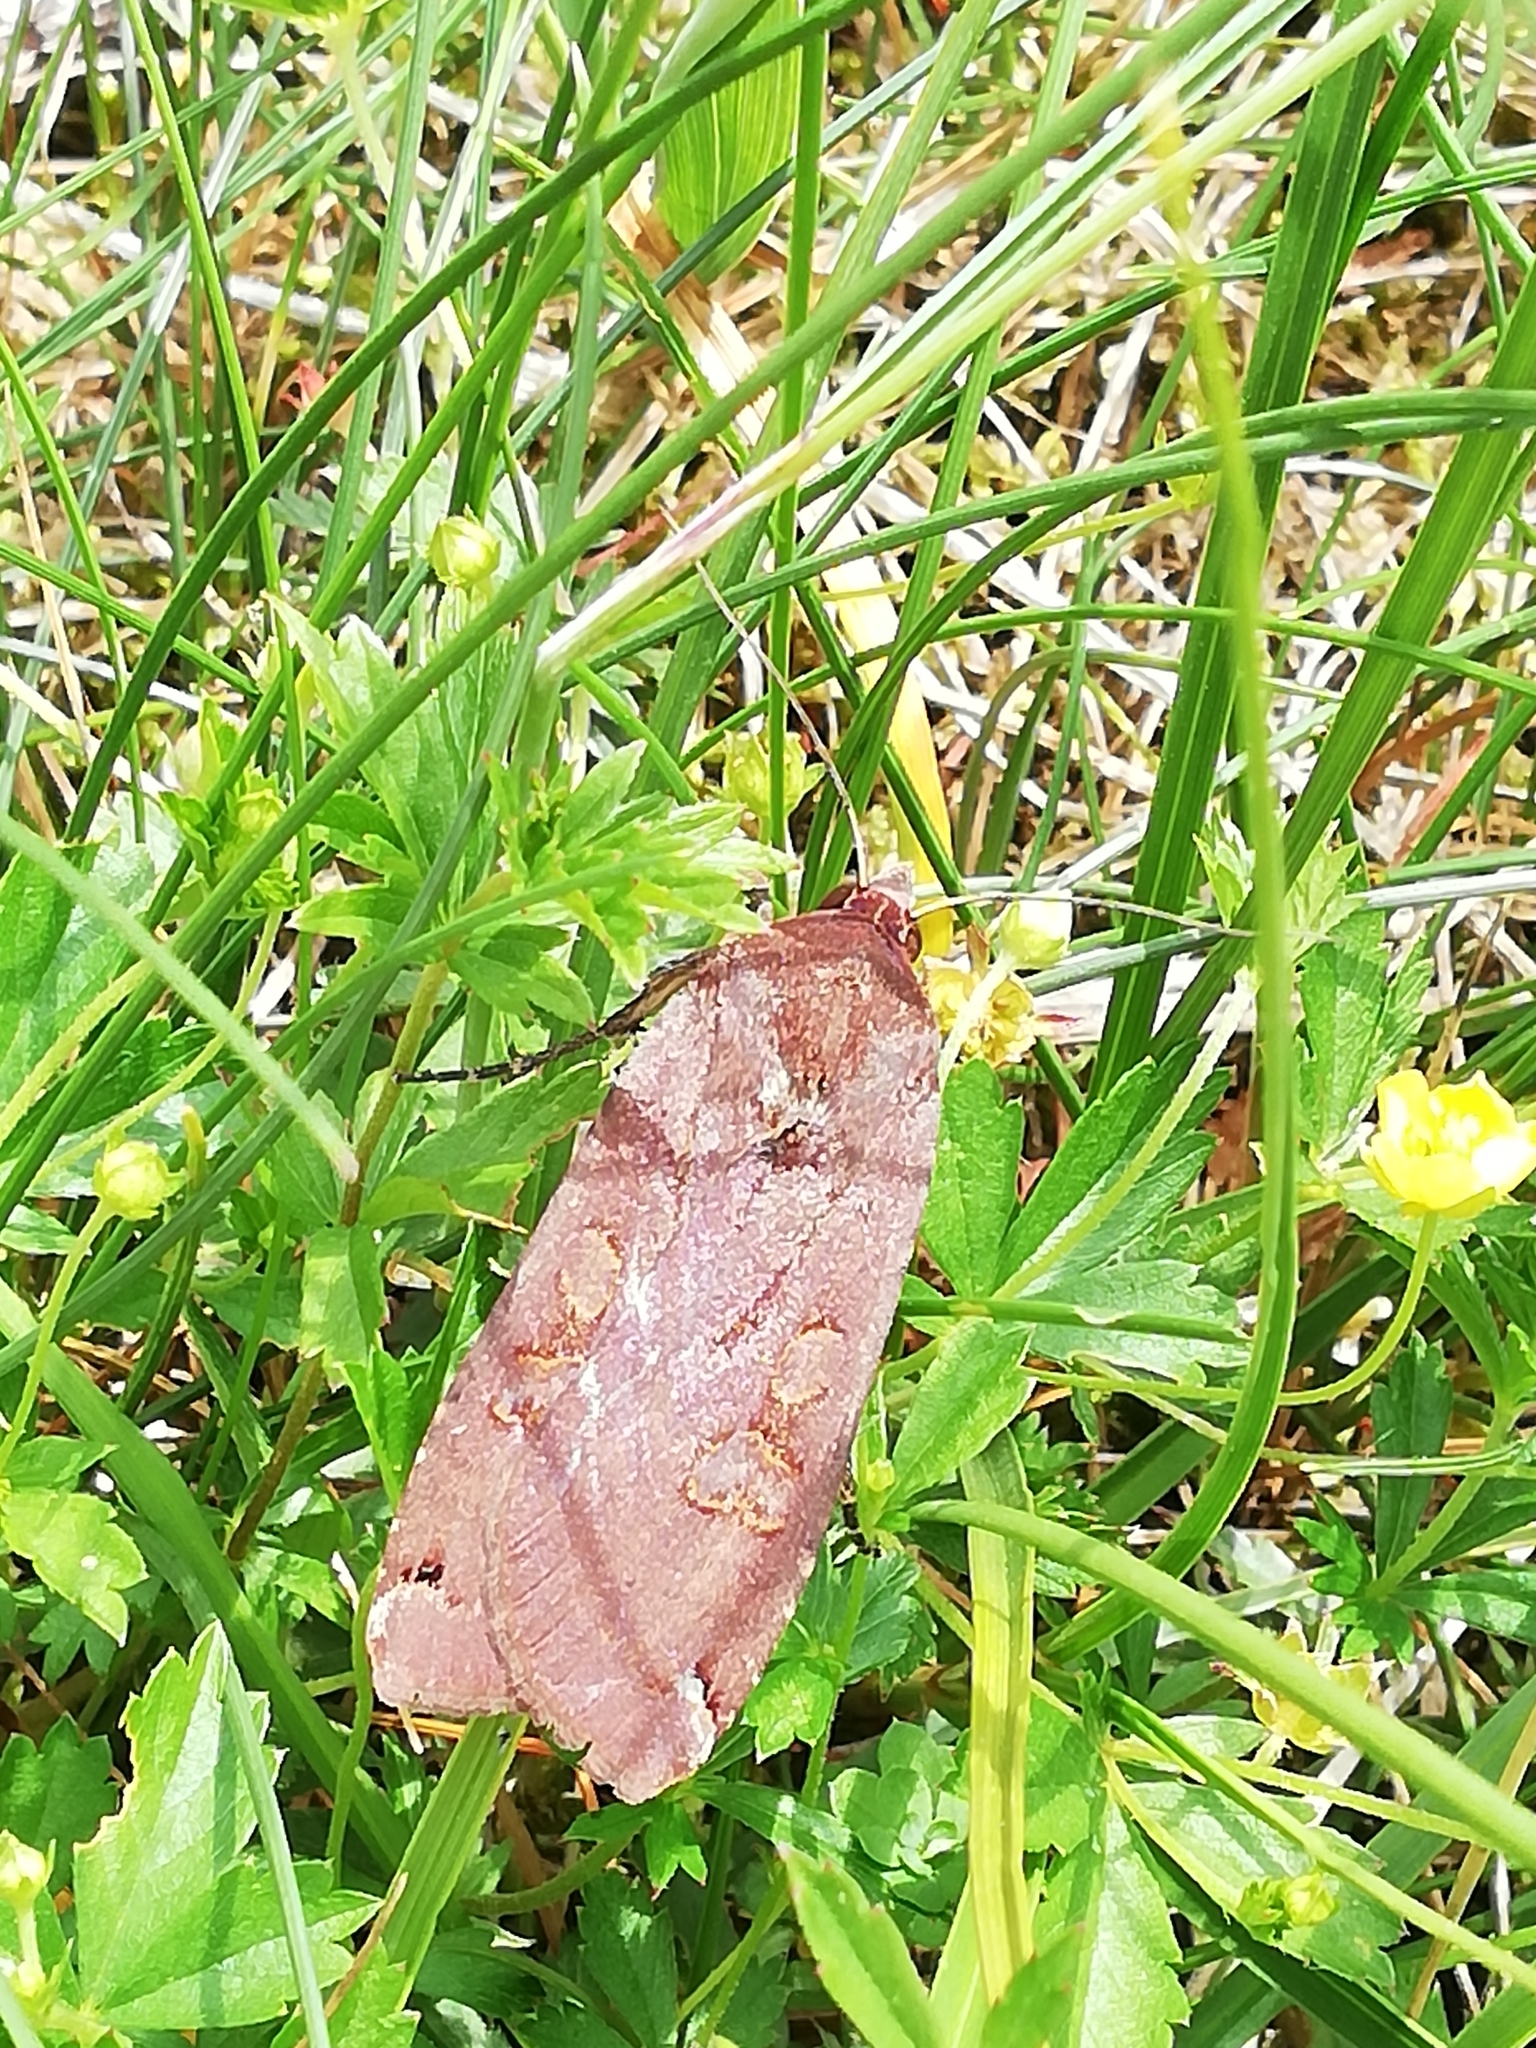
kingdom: Animalia
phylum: Arthropoda
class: Insecta
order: Lepidoptera
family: Noctuidae
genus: Noctua
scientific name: Noctua pronuba
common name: Large yellow underwing
